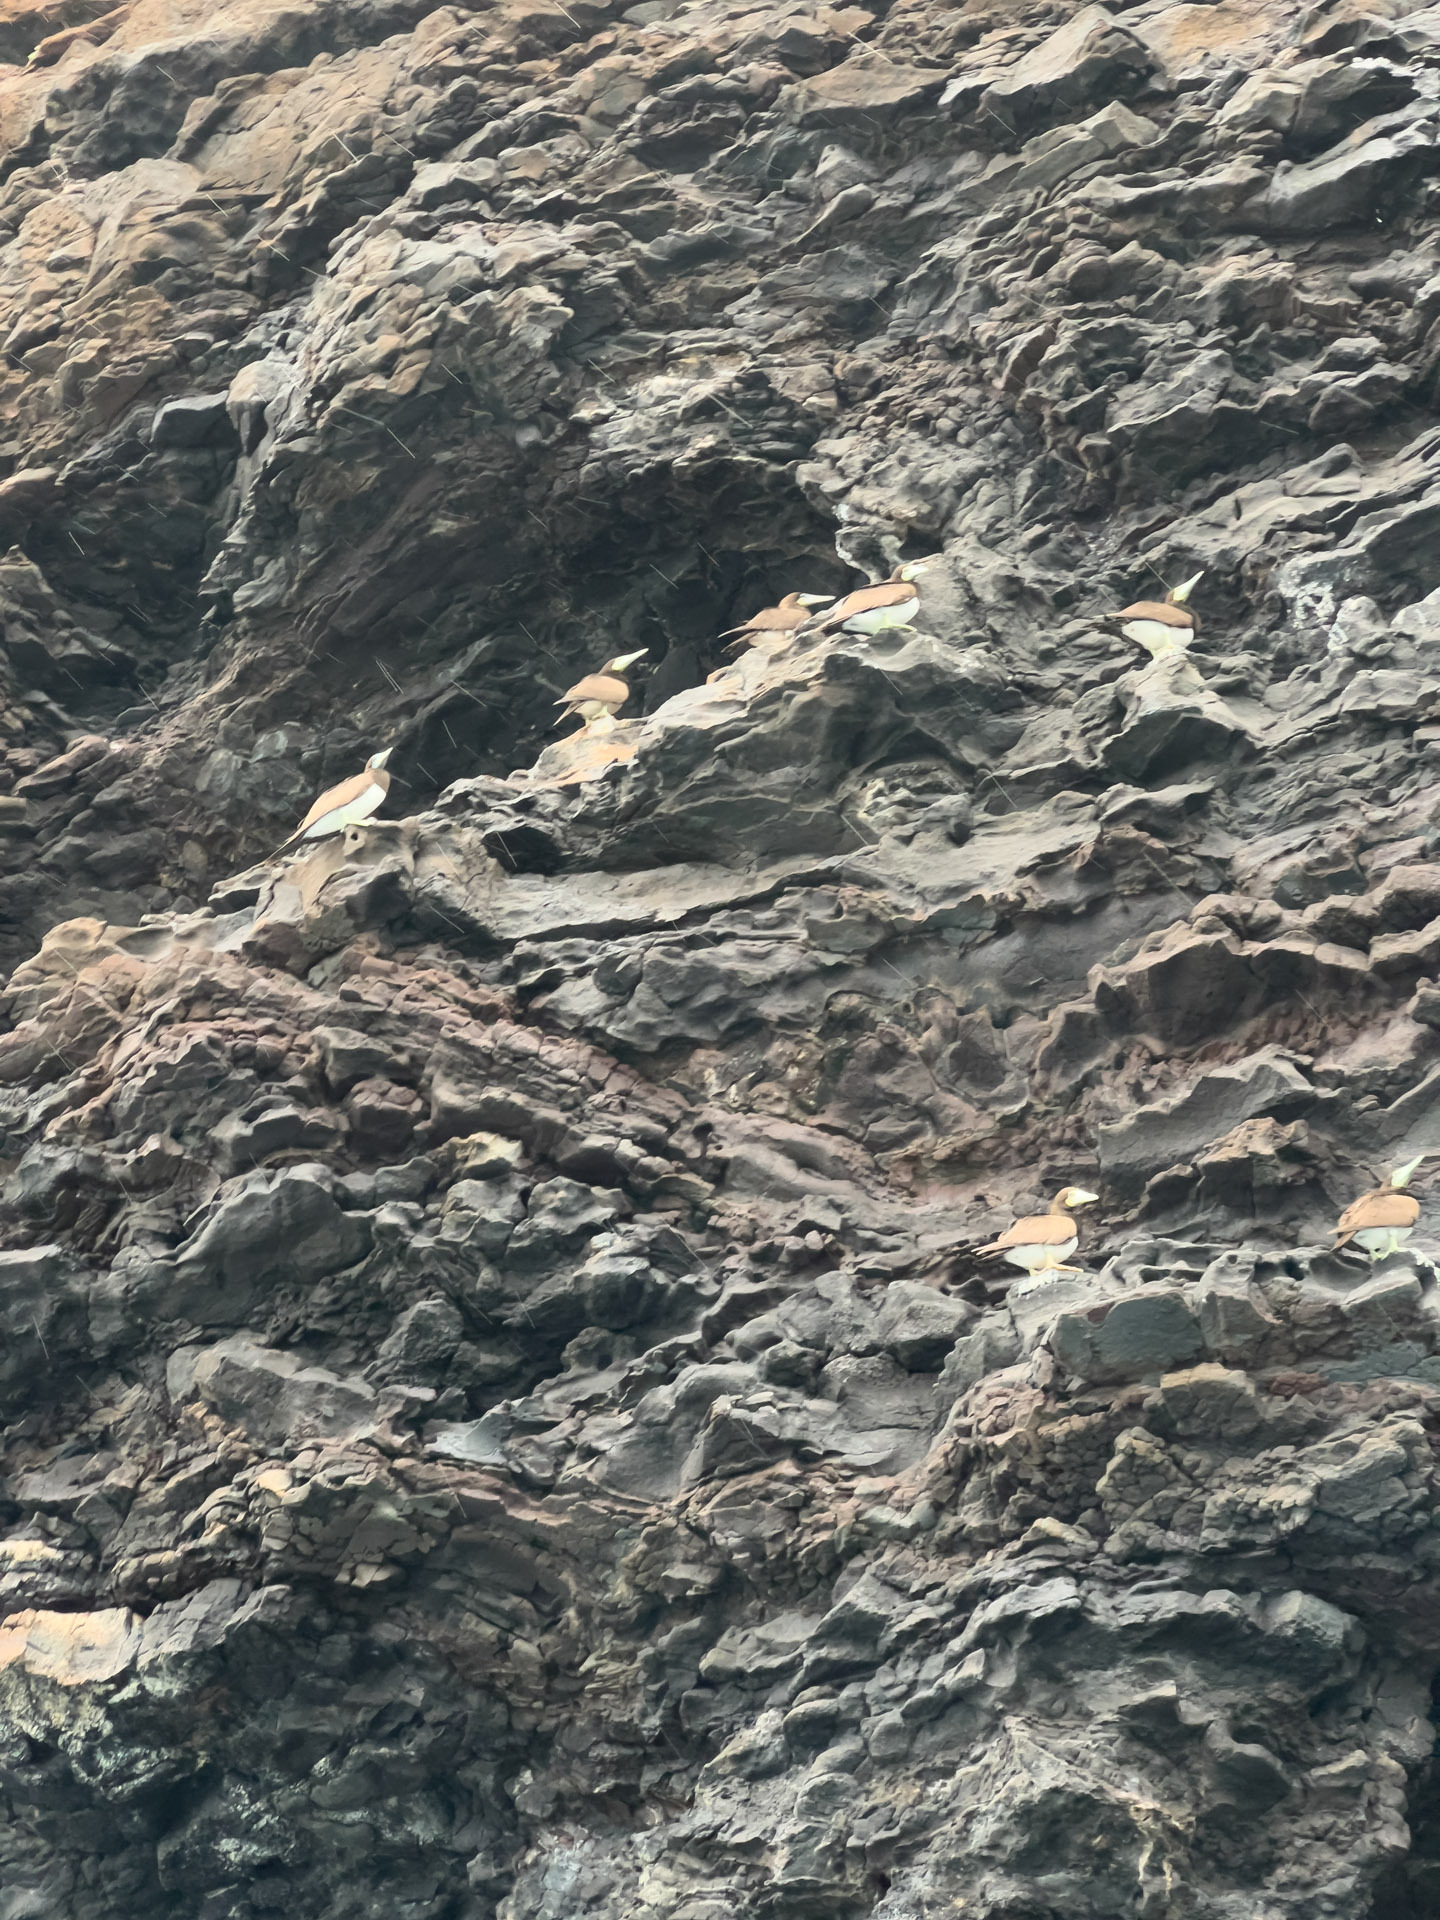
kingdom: Animalia
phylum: Chordata
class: Aves
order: Suliformes
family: Sulidae
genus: Sula
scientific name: Sula leucogaster
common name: Brown booby
